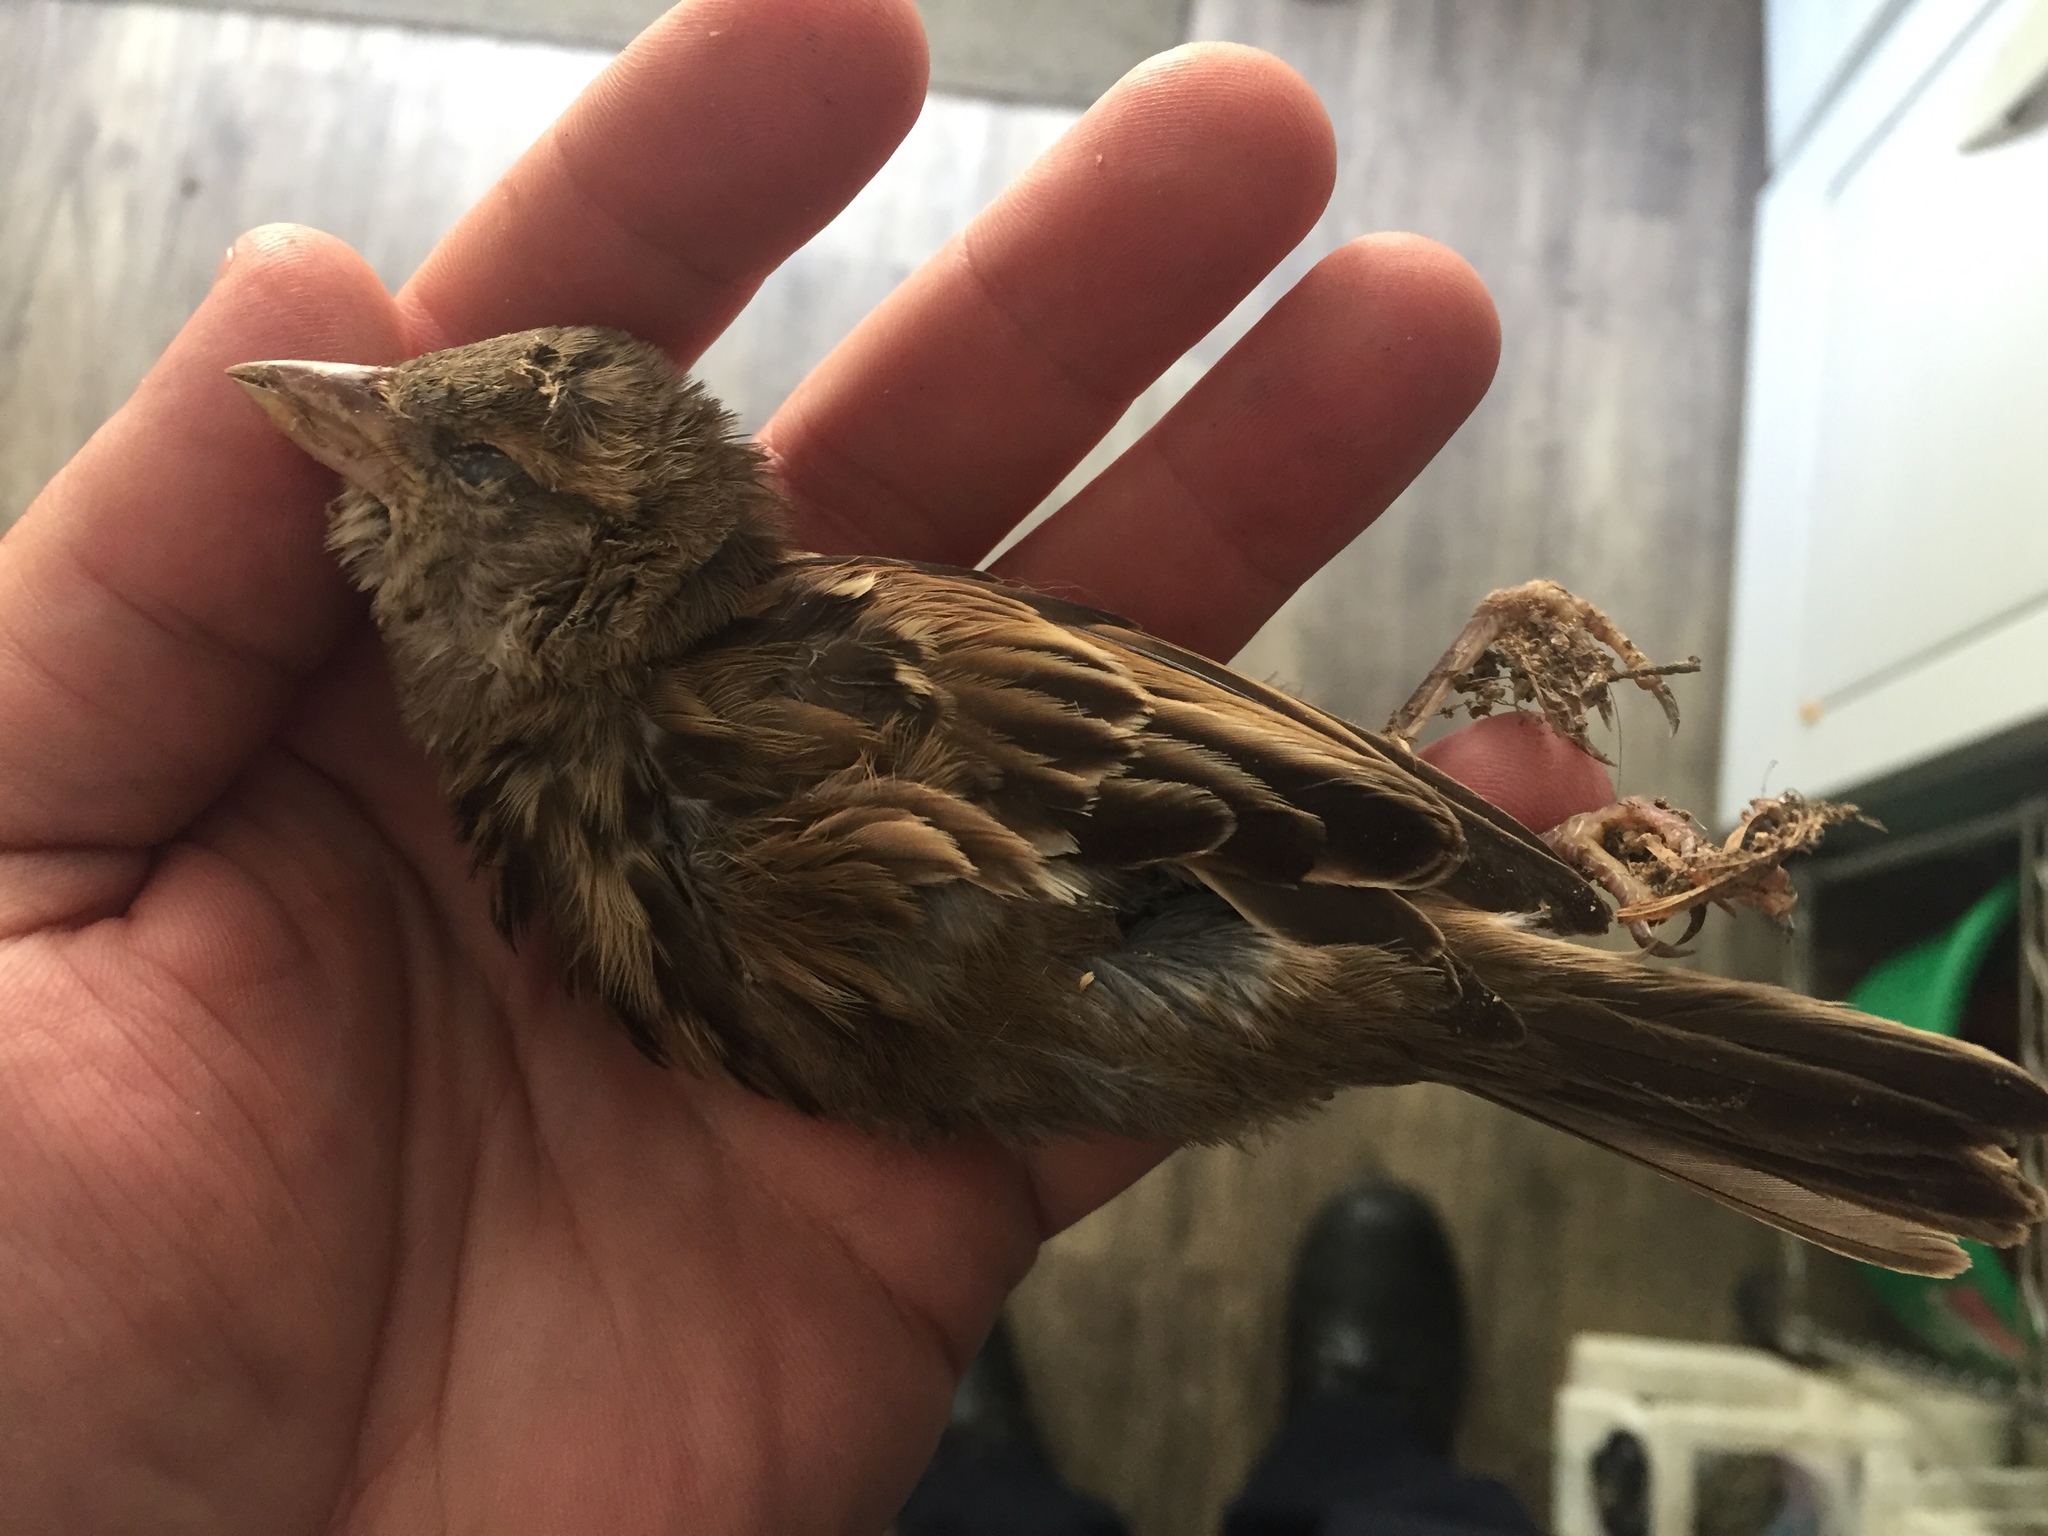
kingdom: Animalia
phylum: Chordata
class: Aves
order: Passeriformes
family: Passeridae
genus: Passer
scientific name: Passer domesticus
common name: House sparrow
